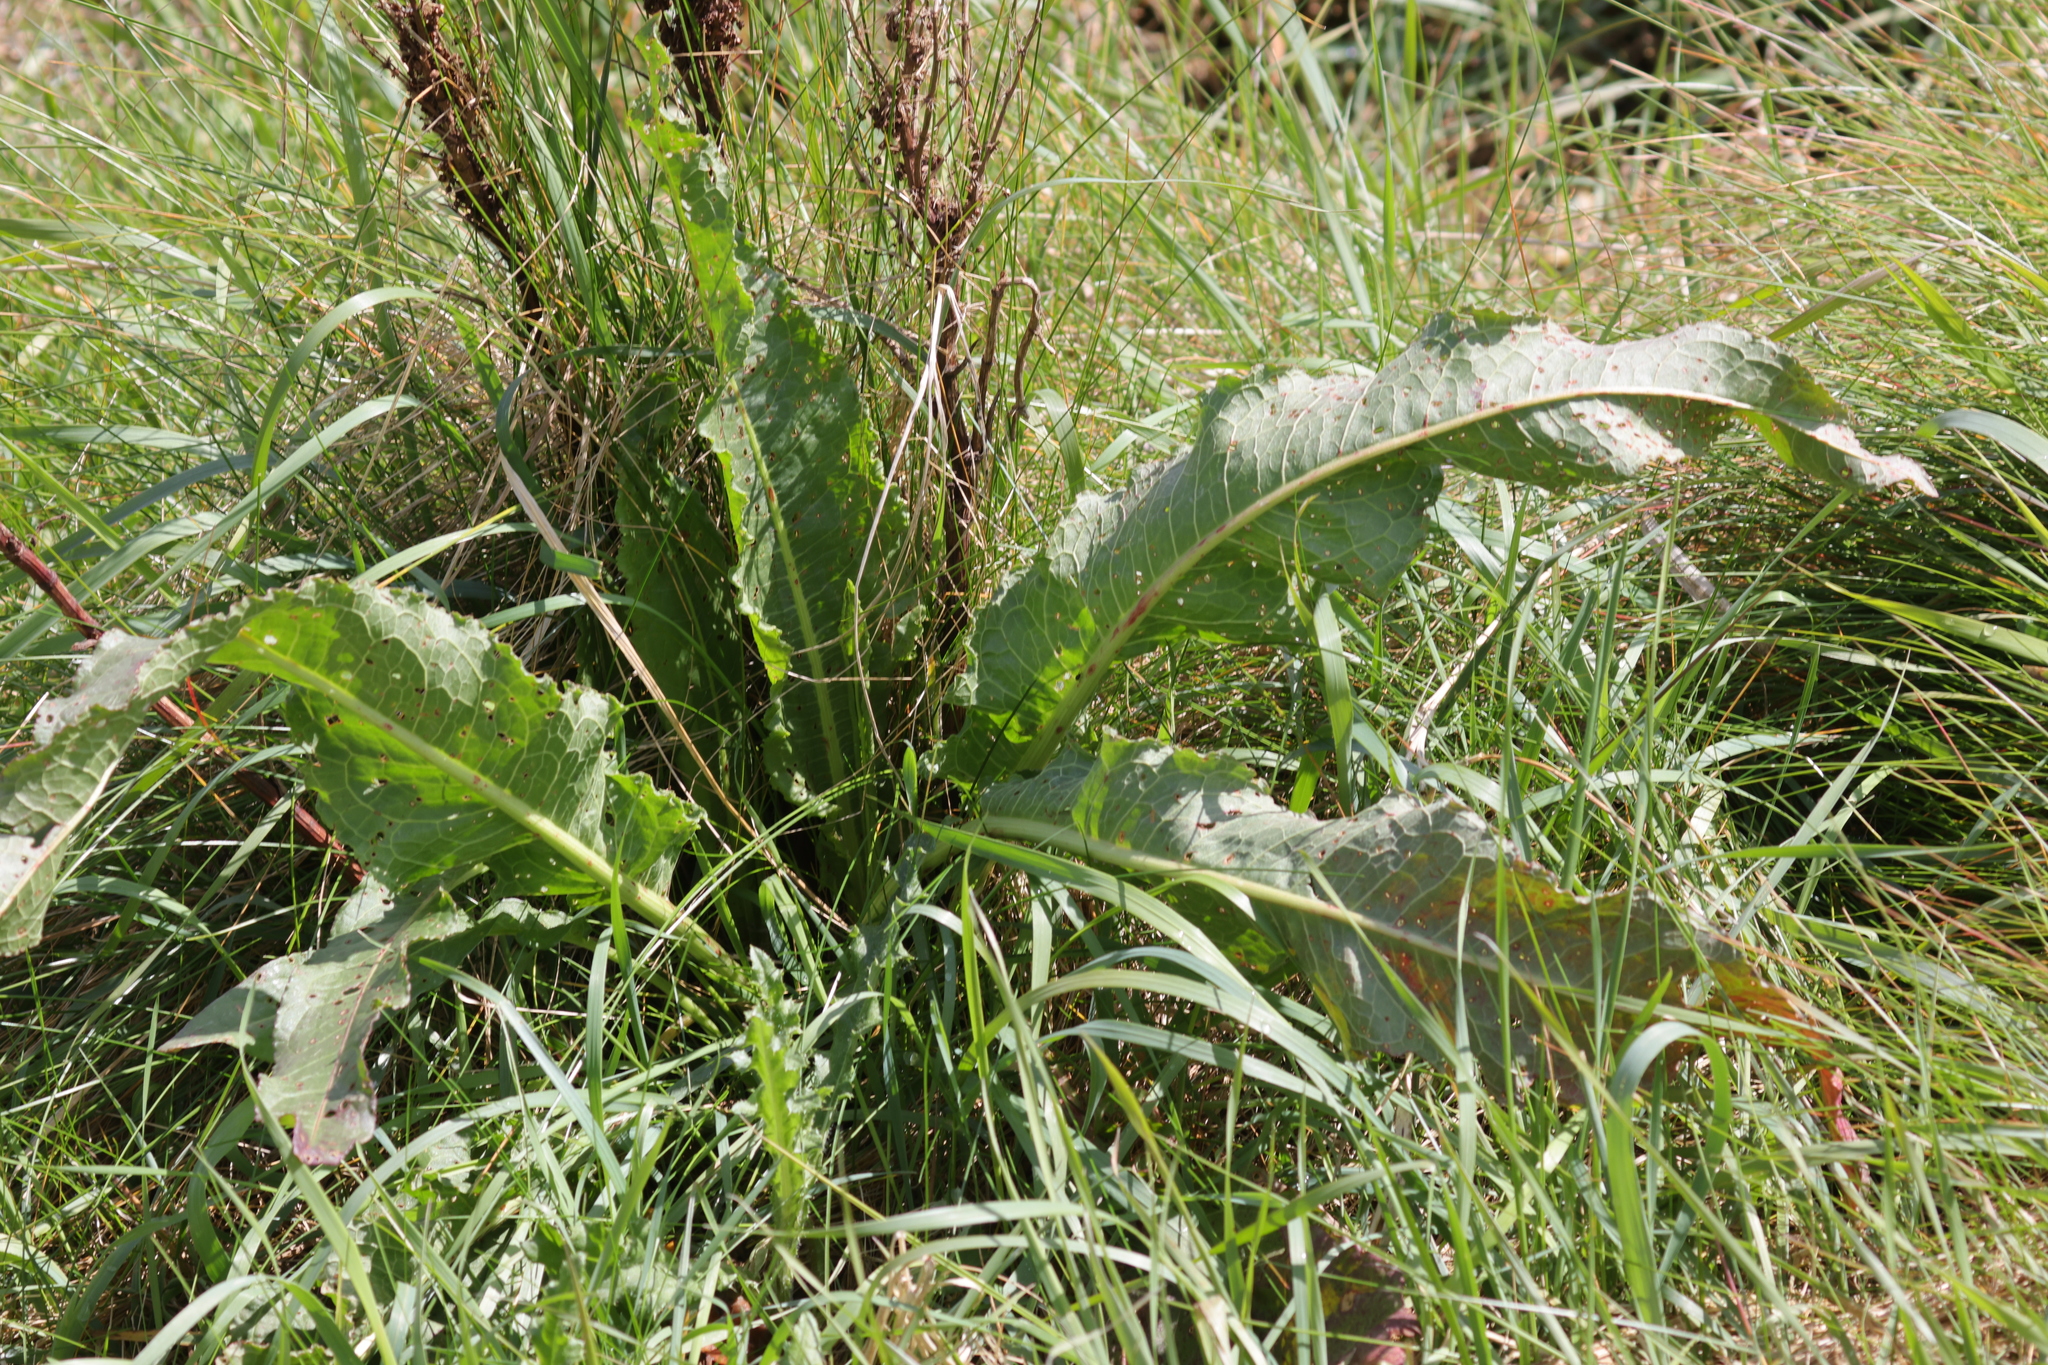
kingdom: Plantae
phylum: Tracheophyta
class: Magnoliopsida
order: Caryophyllales
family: Polygonaceae
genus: Rumex
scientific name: Rumex acutus
